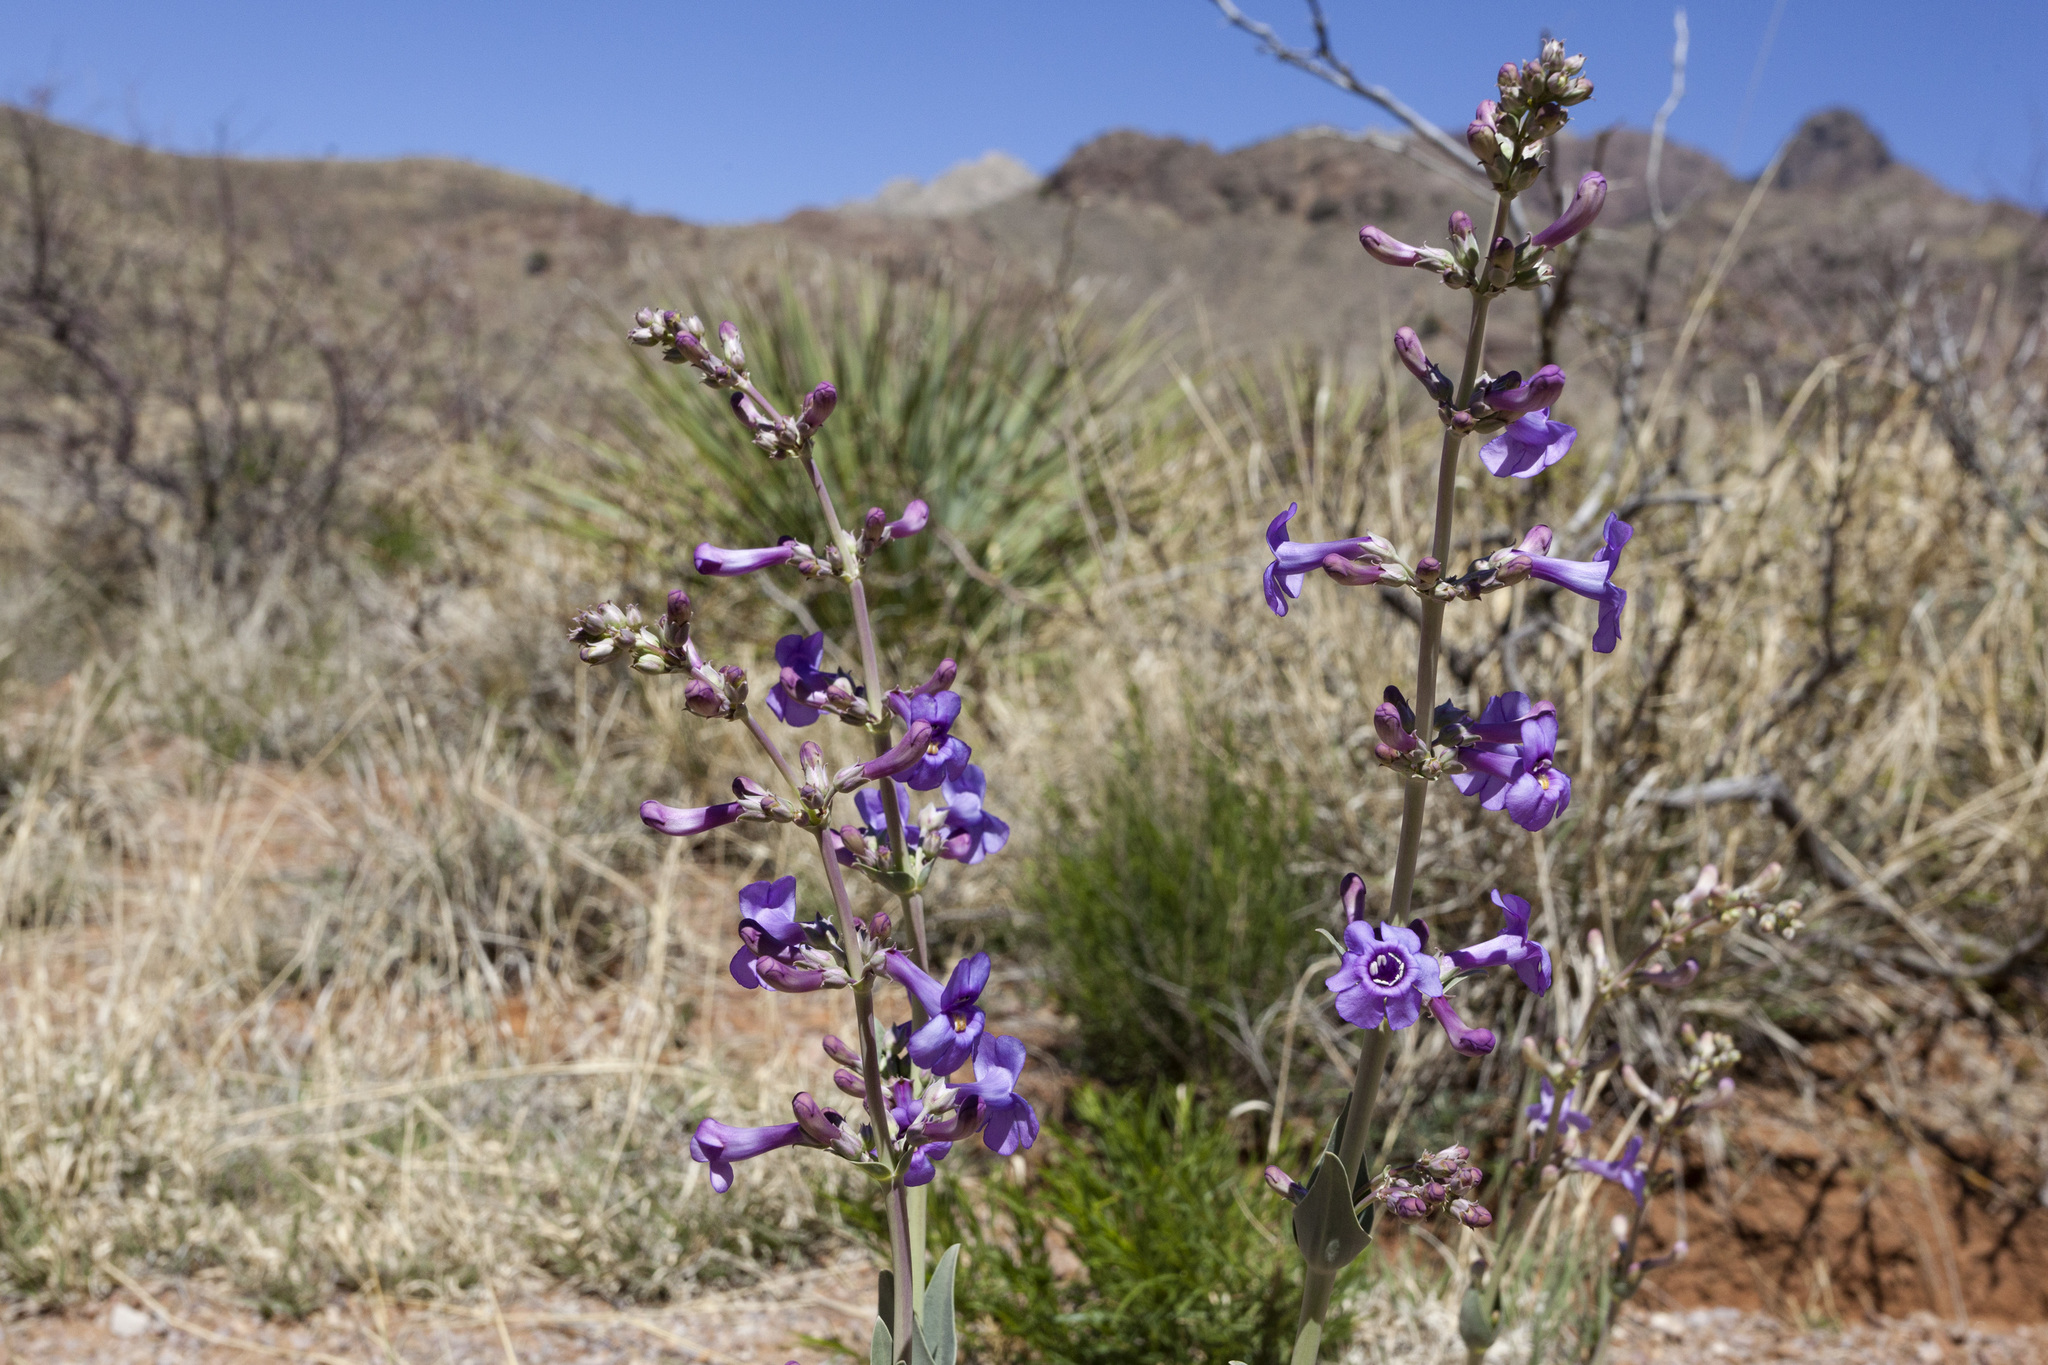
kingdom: Plantae
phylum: Tracheophyta
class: Magnoliopsida
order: Lamiales
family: Plantaginaceae
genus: Penstemon
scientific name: Penstemon fendleri
